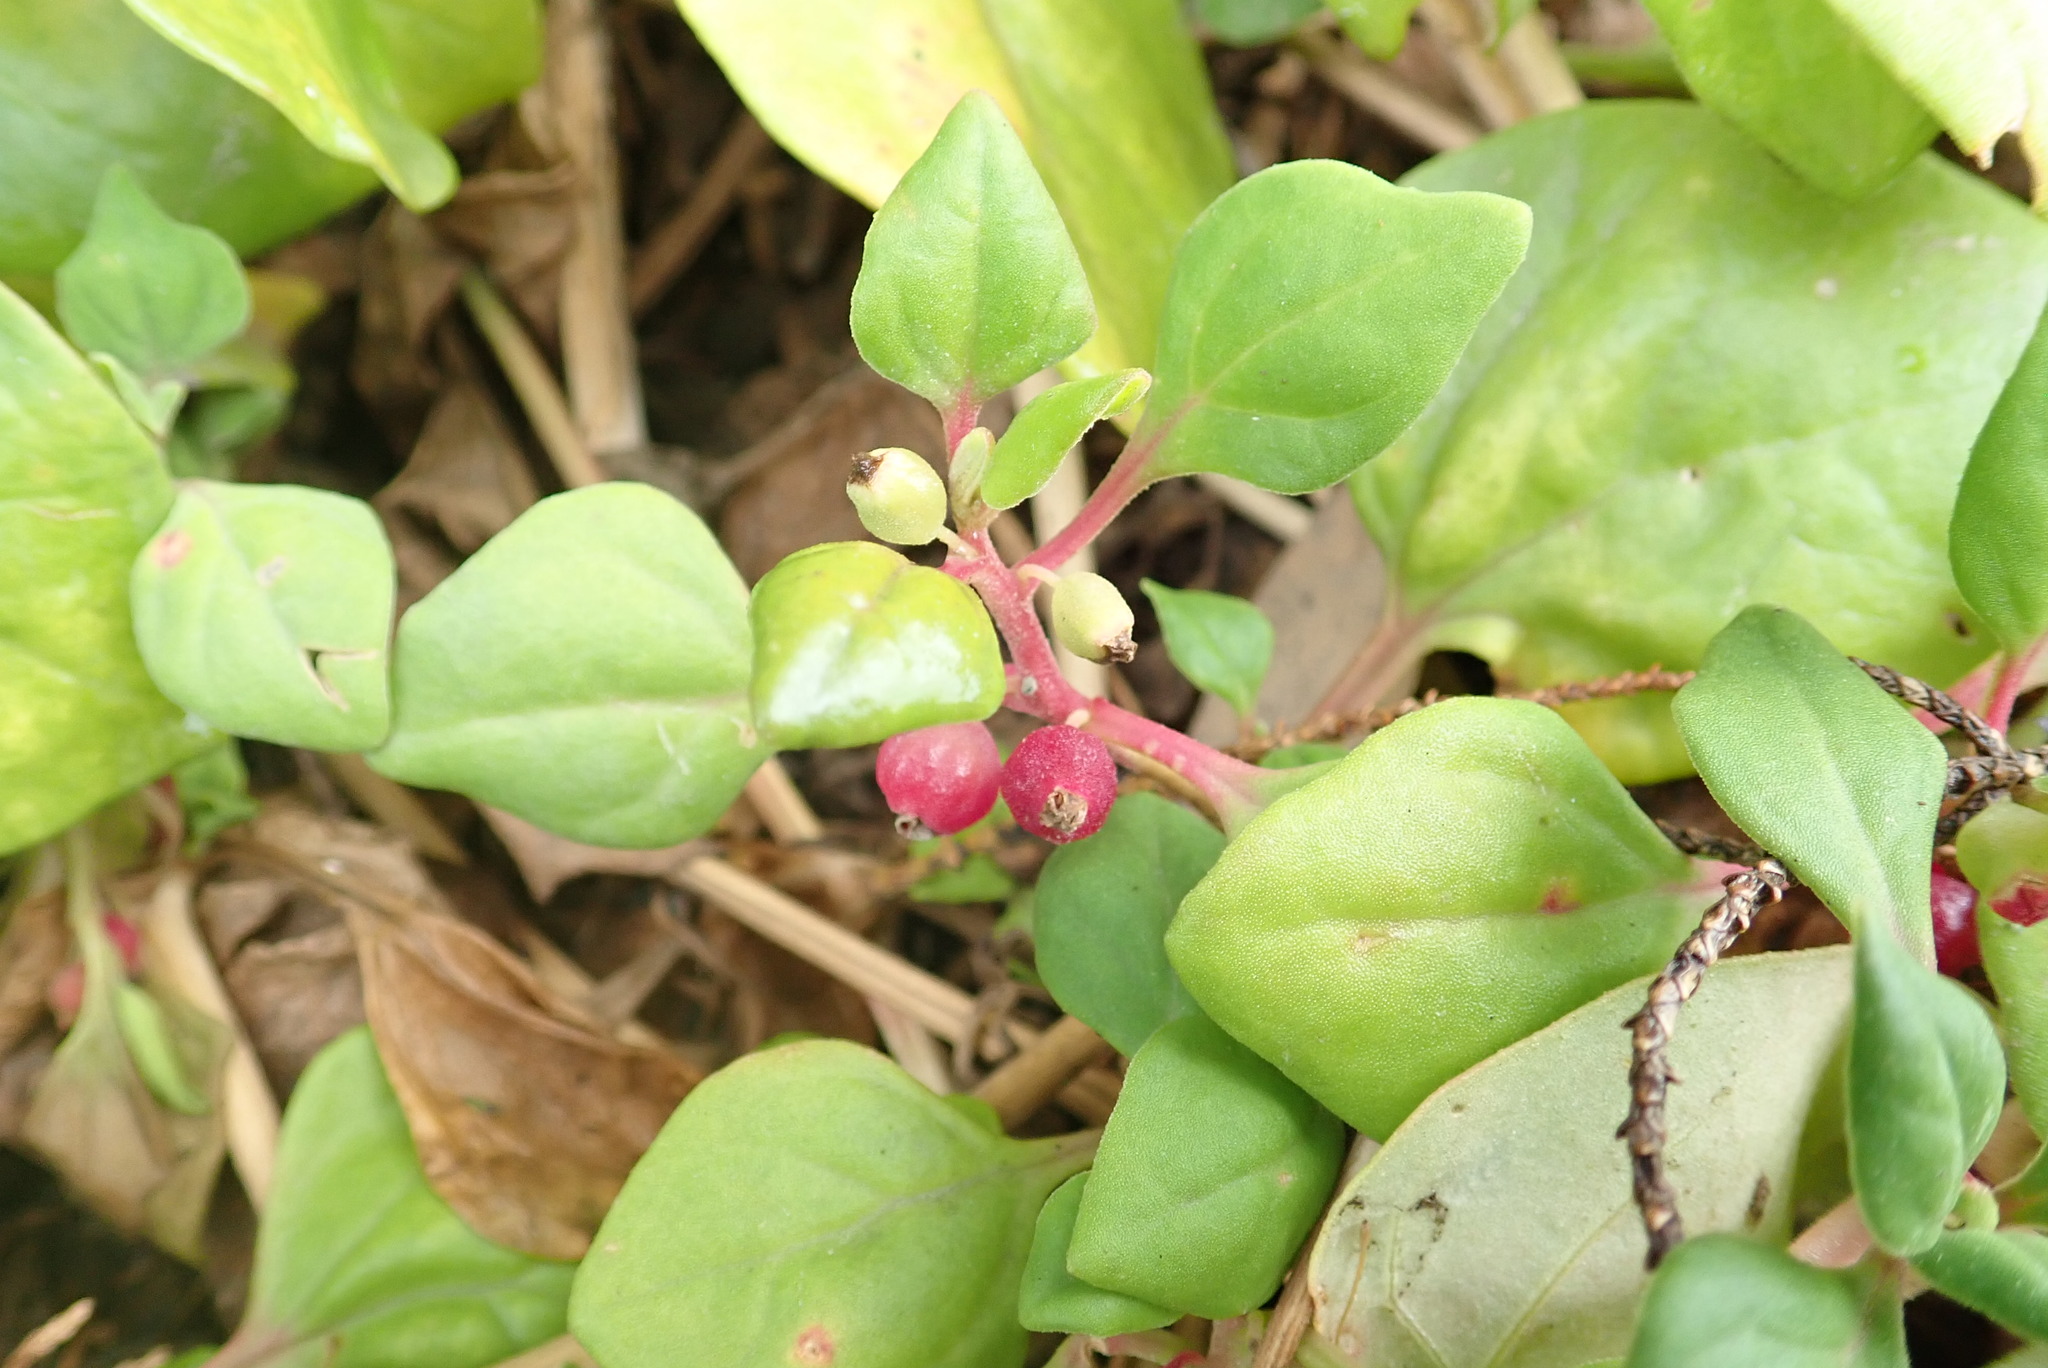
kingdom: Plantae
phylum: Tracheophyta
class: Magnoliopsida
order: Caryophyllales
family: Aizoaceae
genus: Tetragonia
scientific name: Tetragonia implexicoma
